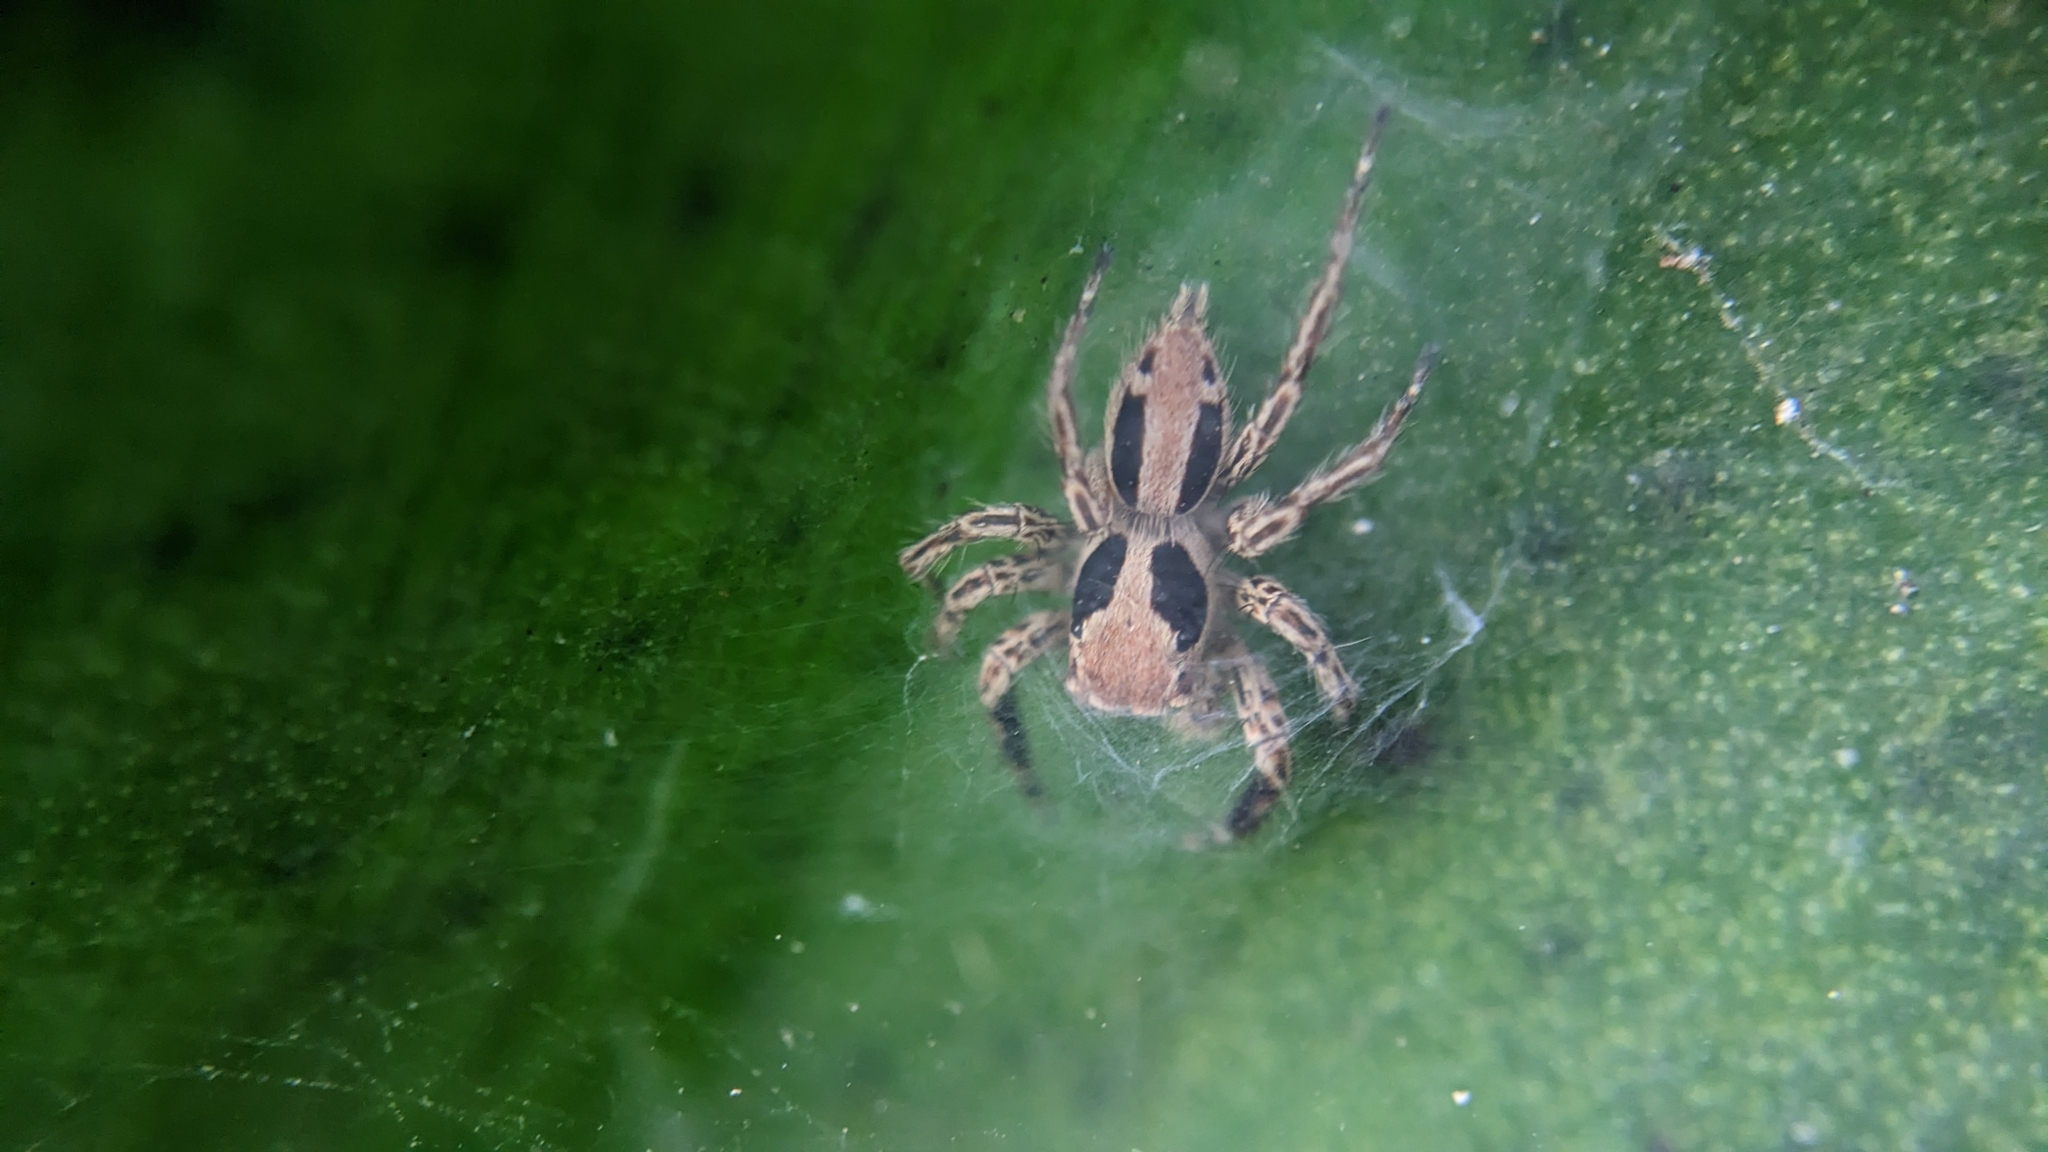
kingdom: Animalia
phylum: Arthropoda
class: Arachnida
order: Araneae
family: Salticidae
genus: Plexippus
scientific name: Plexippus petersi
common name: Jumping spider
